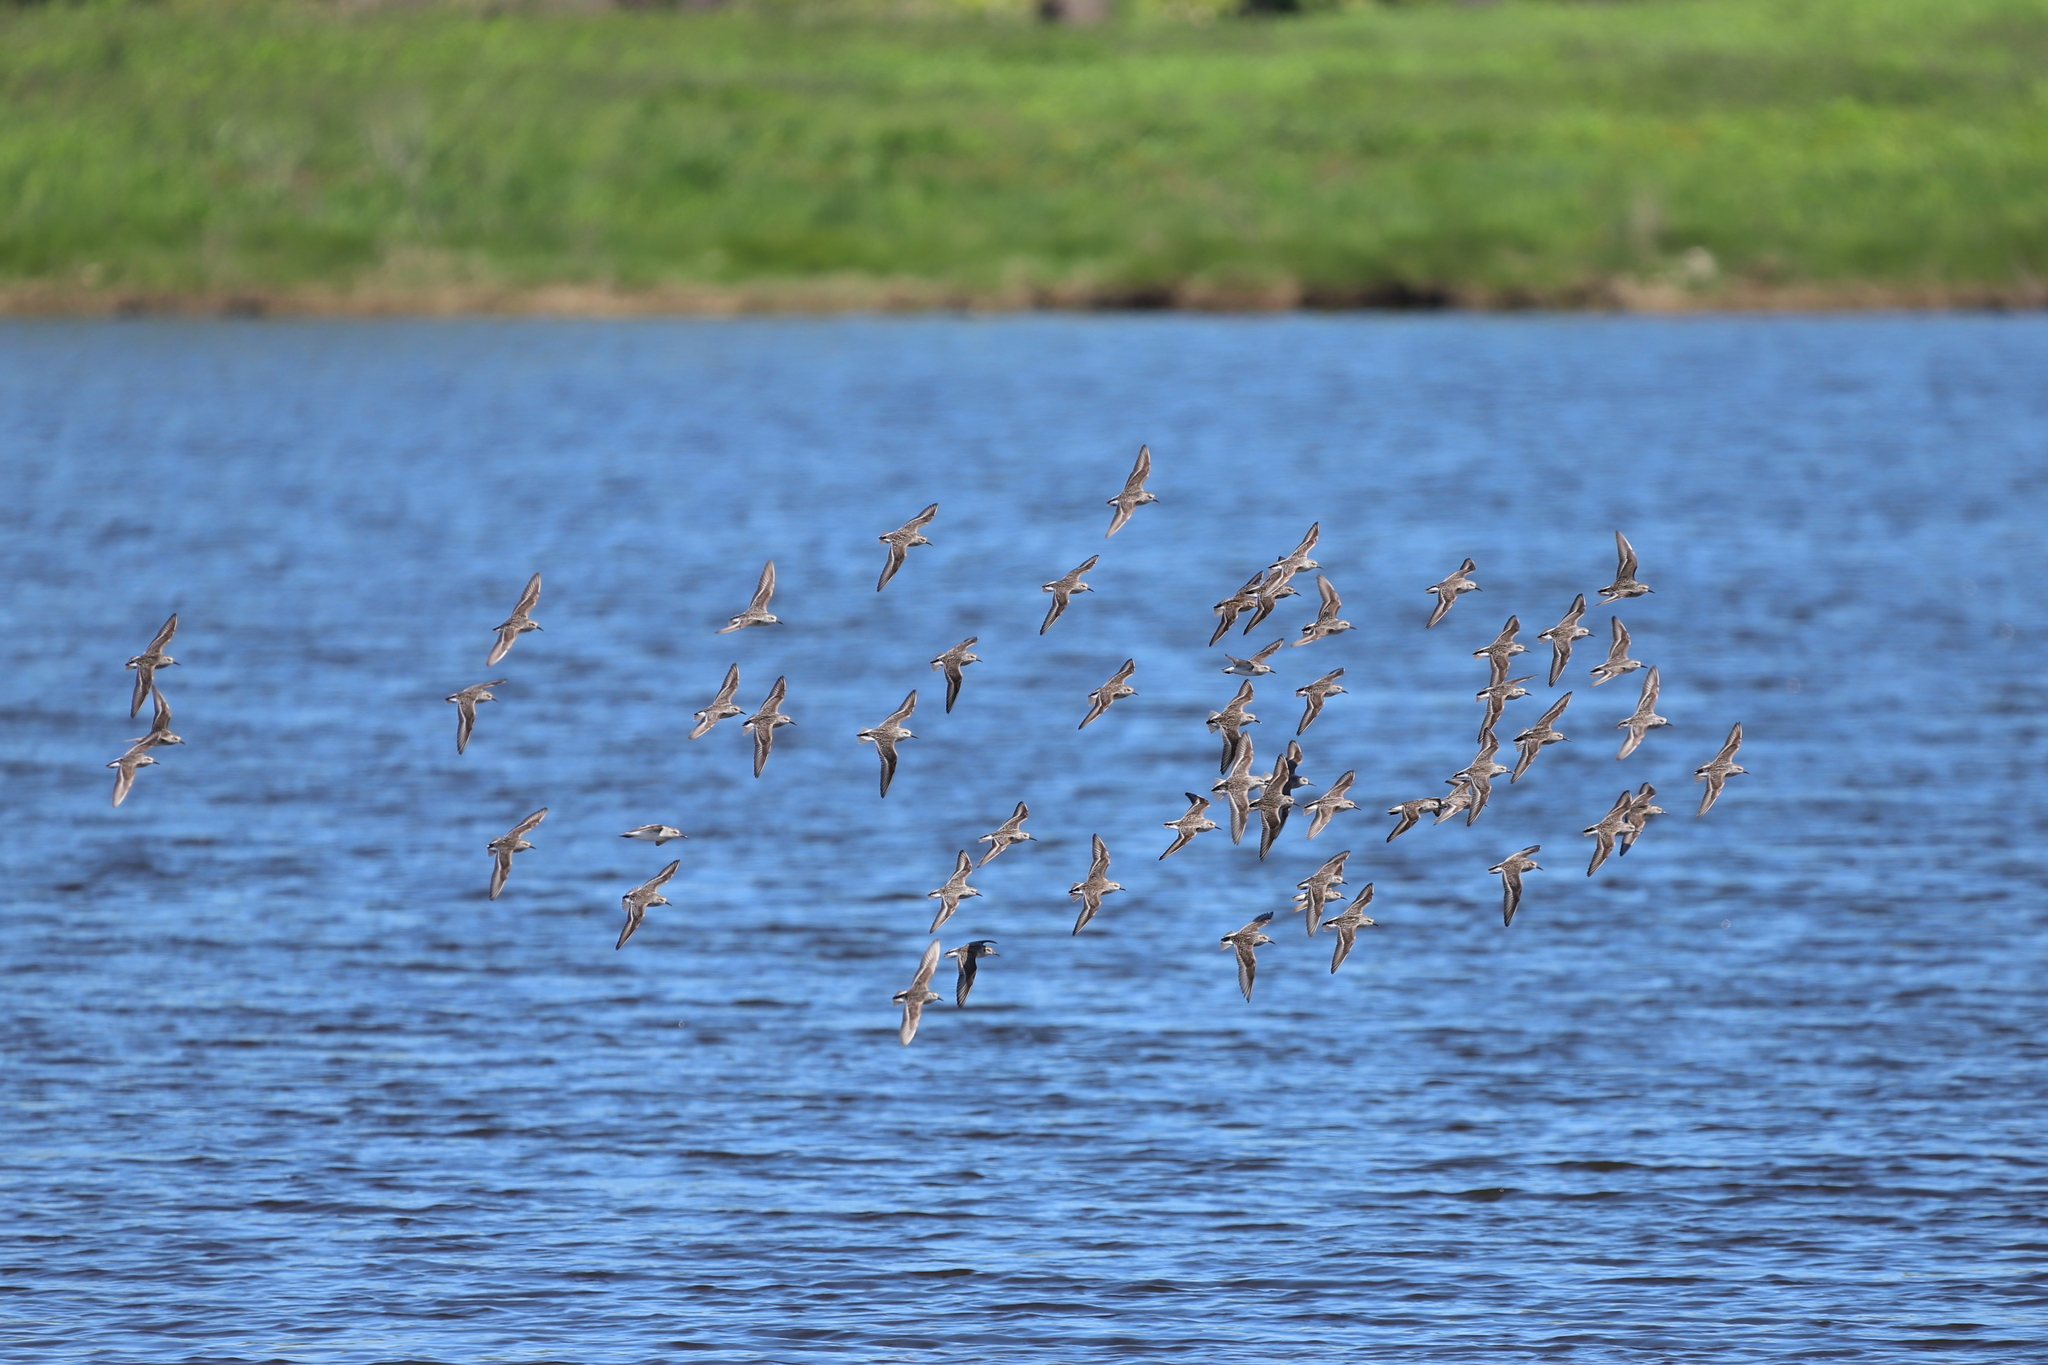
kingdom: Animalia
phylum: Chordata
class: Aves
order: Charadriiformes
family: Scolopacidae
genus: Calidris
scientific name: Calidris minutilla
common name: Least sandpiper
